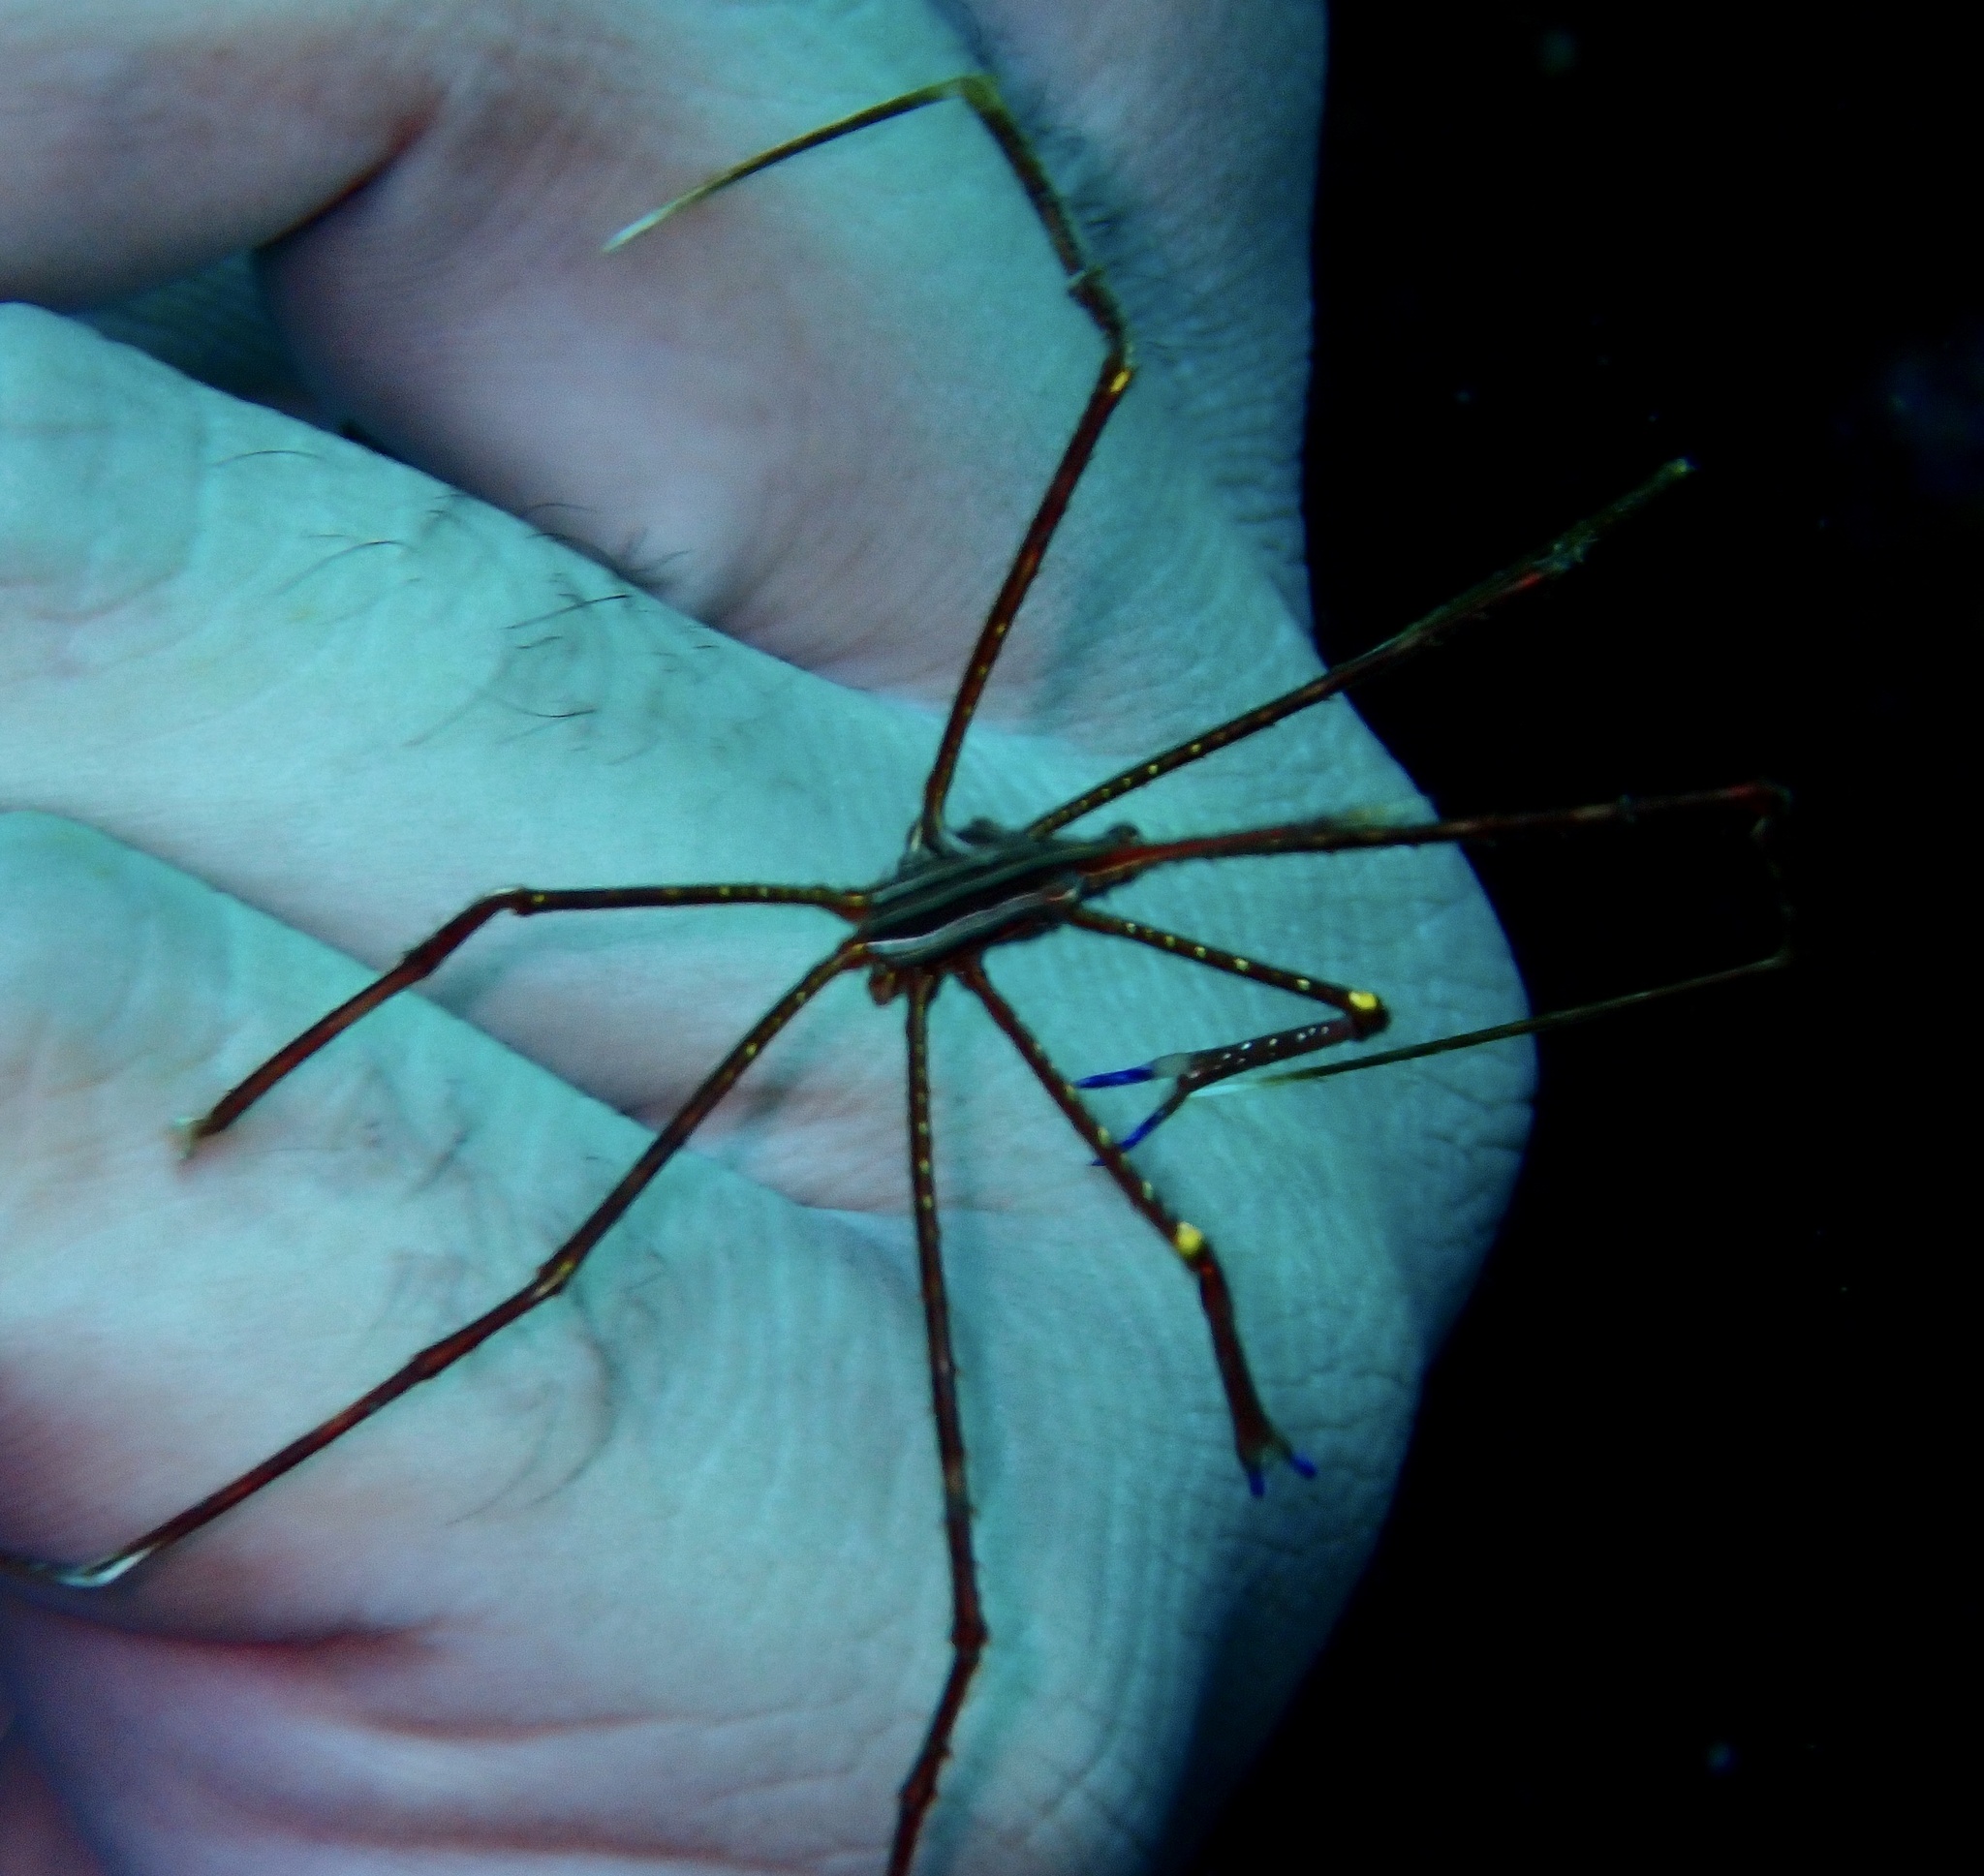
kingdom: Animalia
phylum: Arthropoda
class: Malacostraca
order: Decapoda
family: Inachoididae
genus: Stenorhynchus
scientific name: Stenorhynchus lanceolatus
